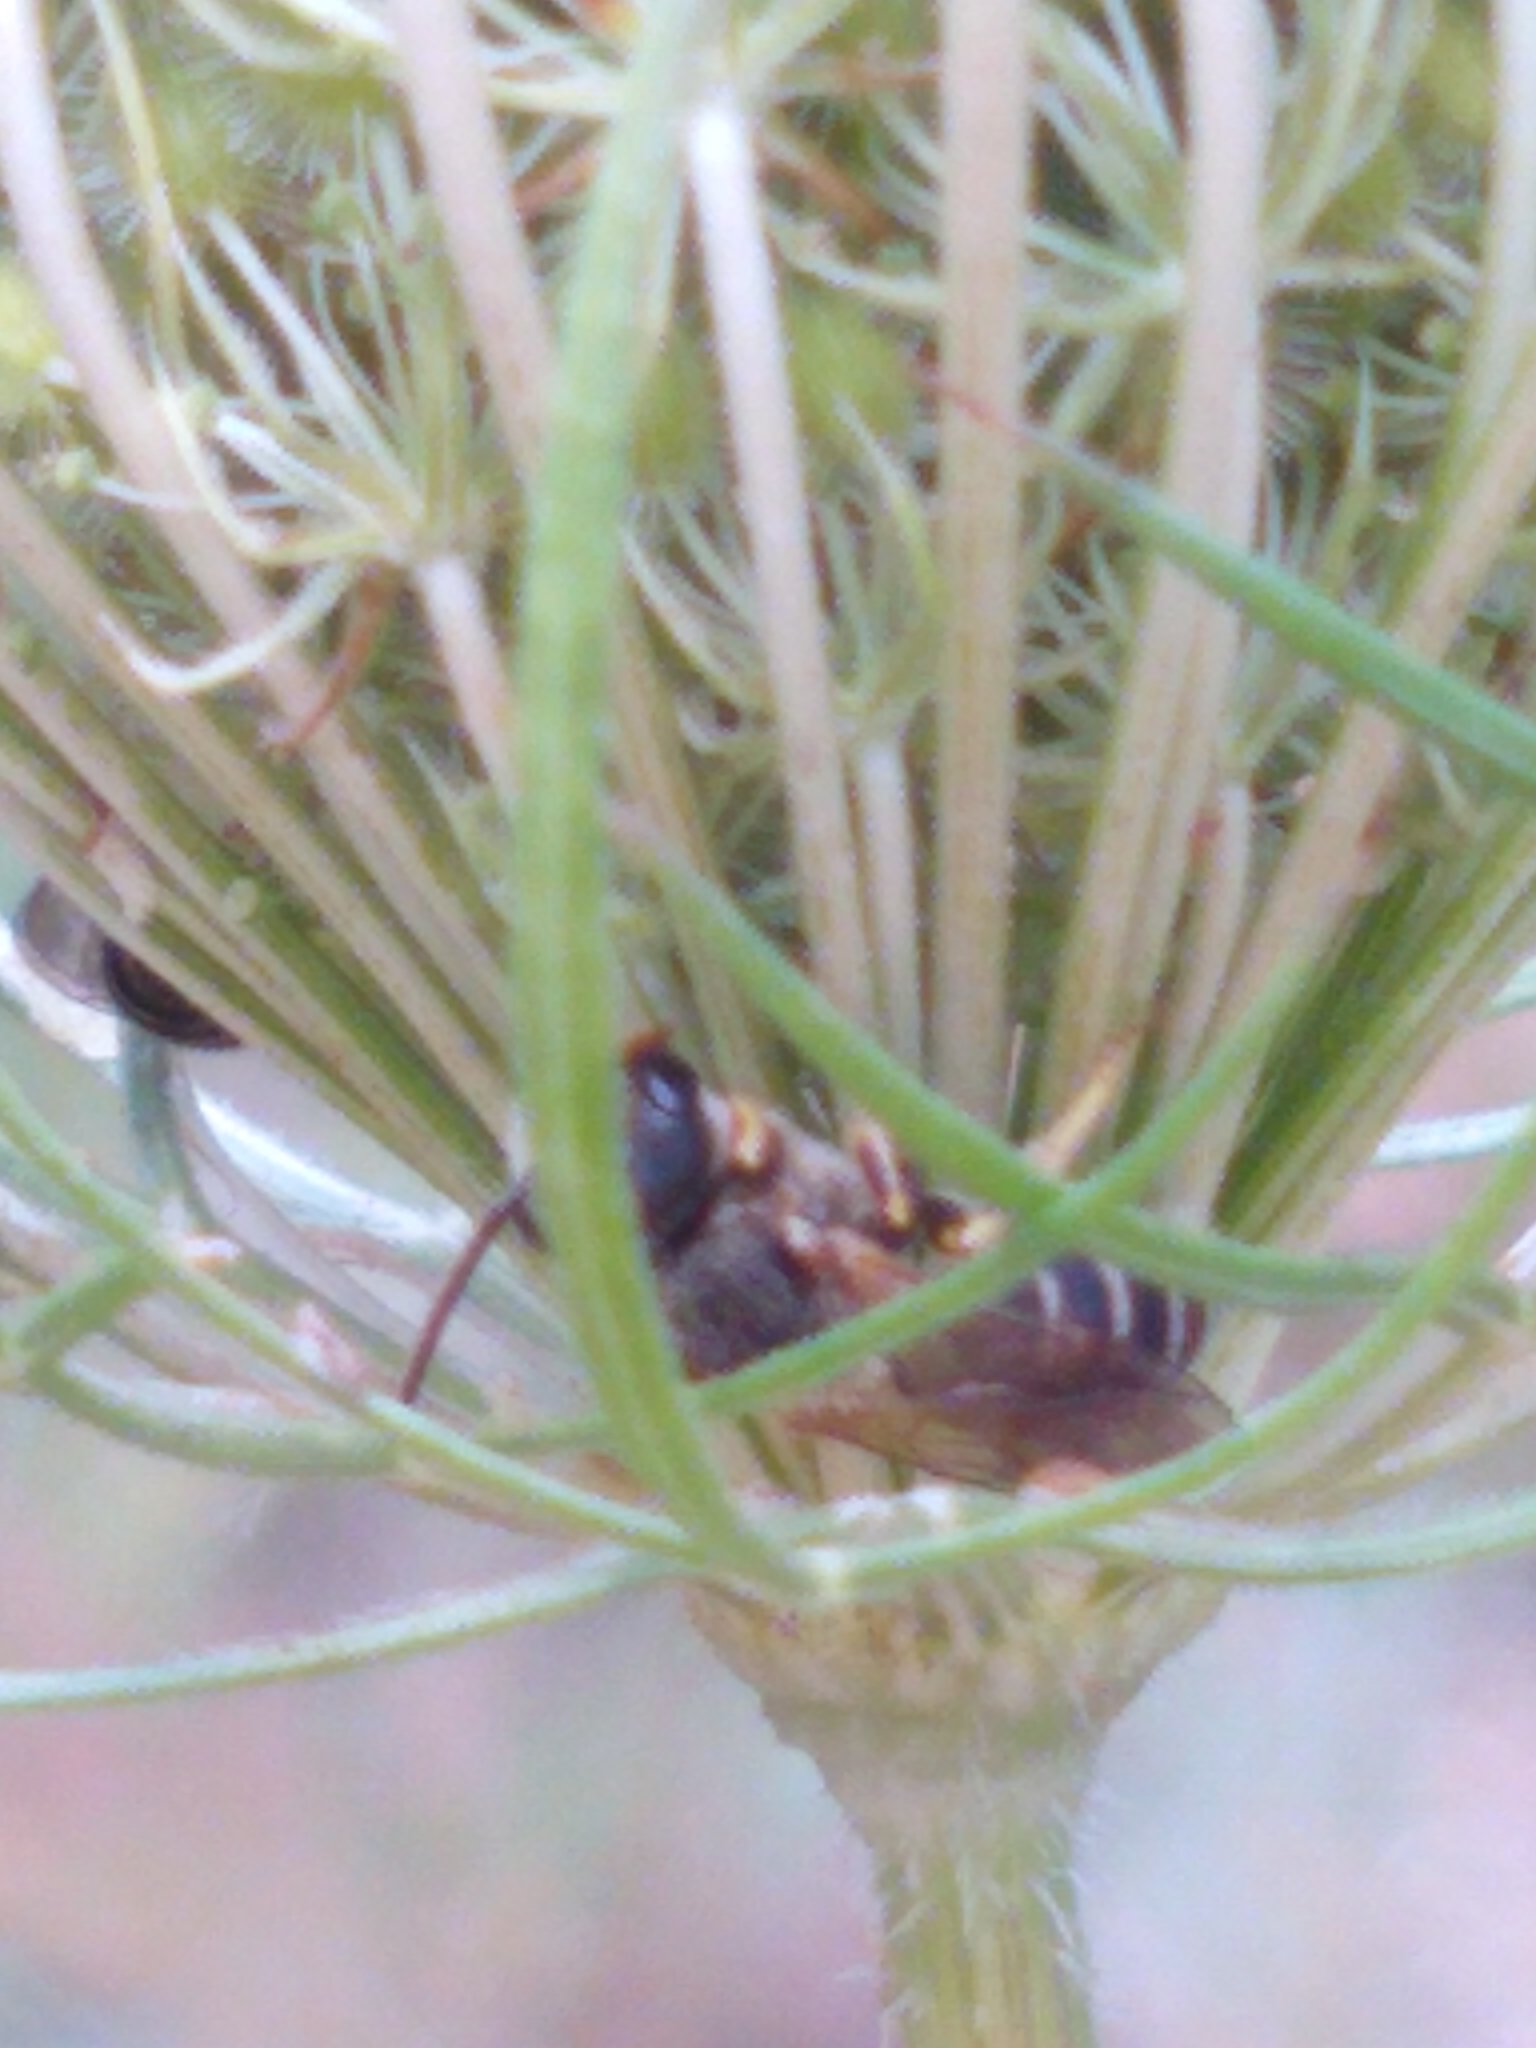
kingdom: Animalia
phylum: Arthropoda
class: Insecta
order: Hymenoptera
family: Halictidae
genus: Halictus
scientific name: Halictus ligatus
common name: Ligated furrow bee
